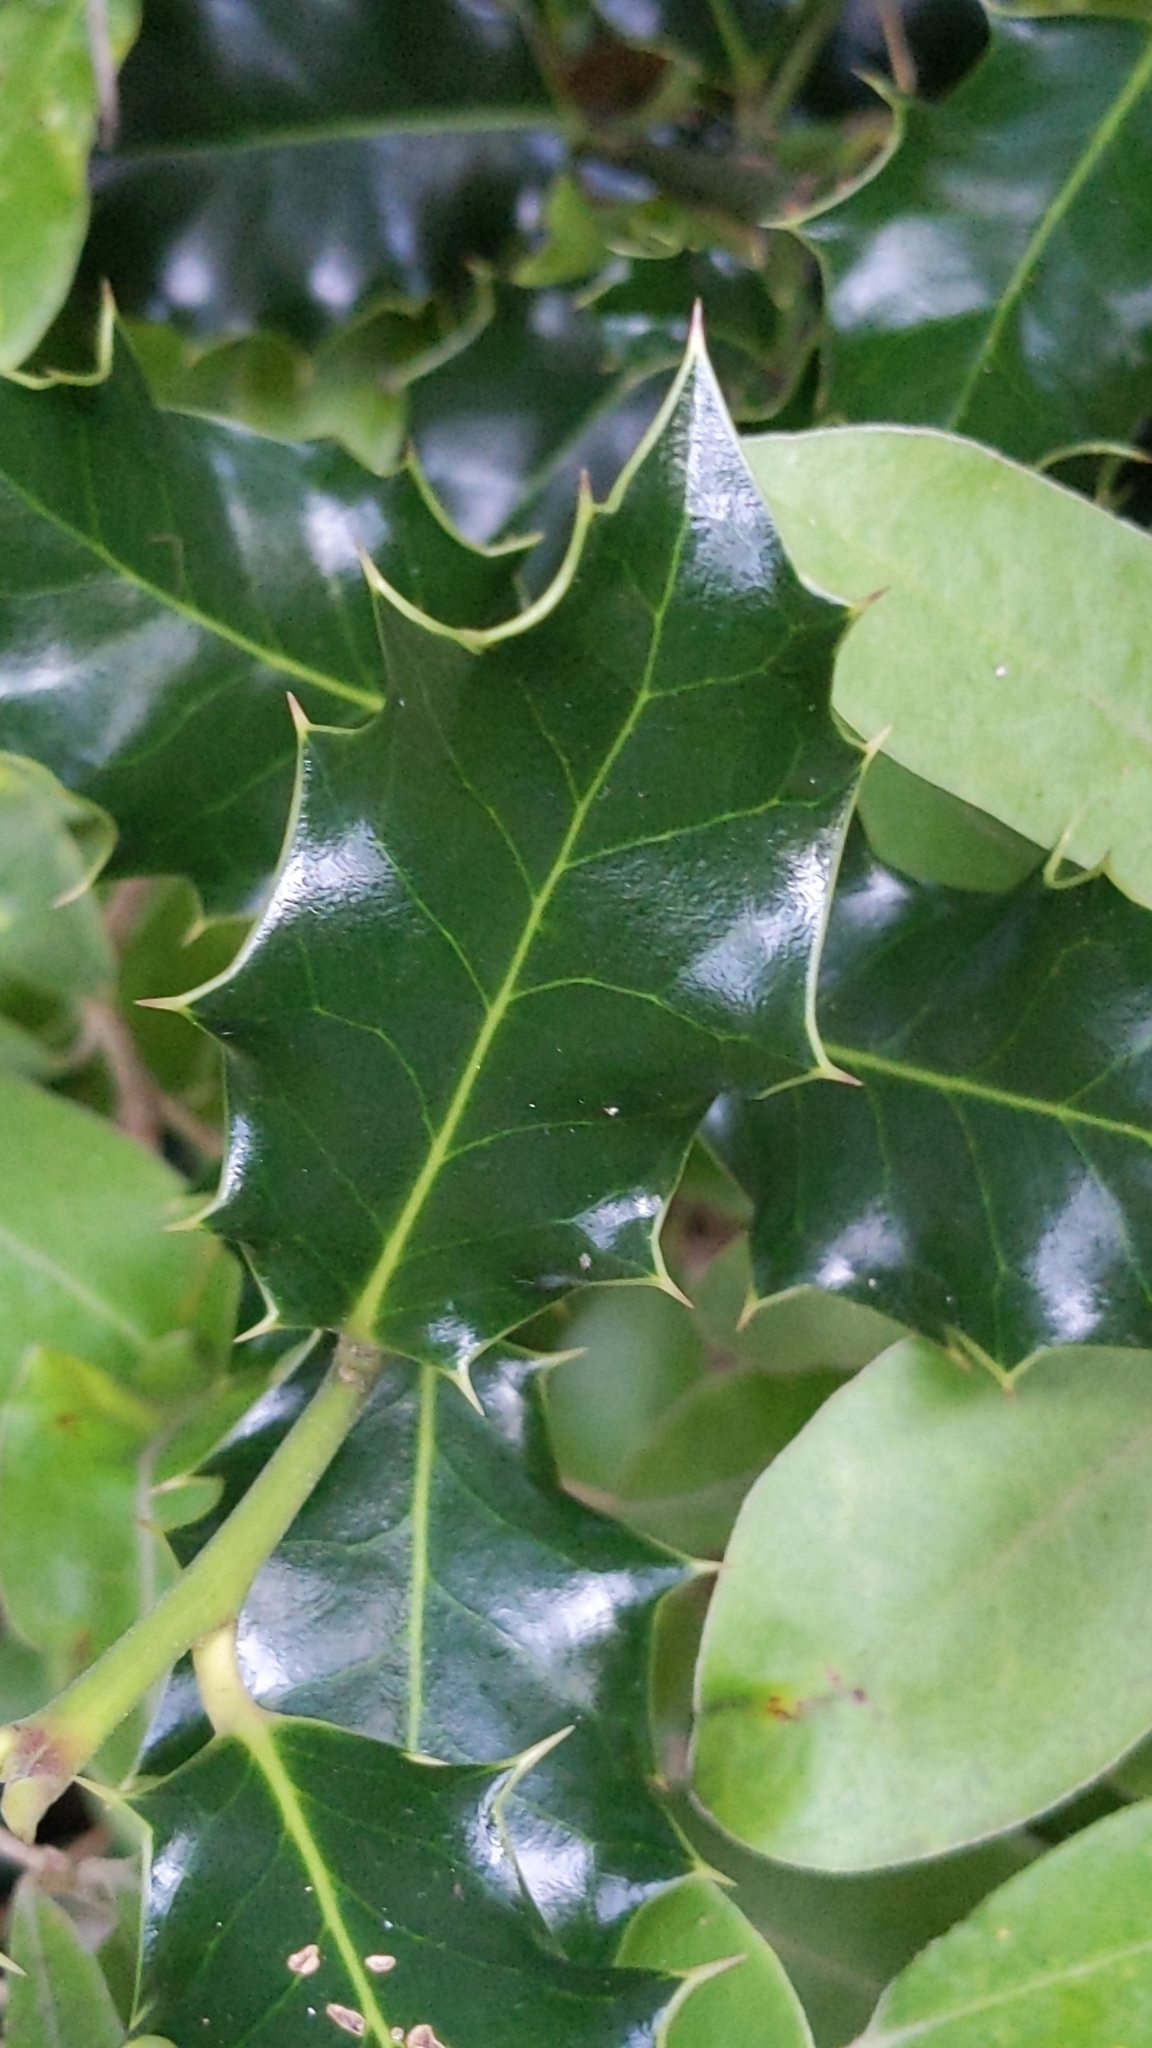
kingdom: Plantae
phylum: Tracheophyta
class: Magnoliopsida
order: Aquifoliales
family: Aquifoliaceae
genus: Ilex
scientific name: Ilex aquifolium
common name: English holly
